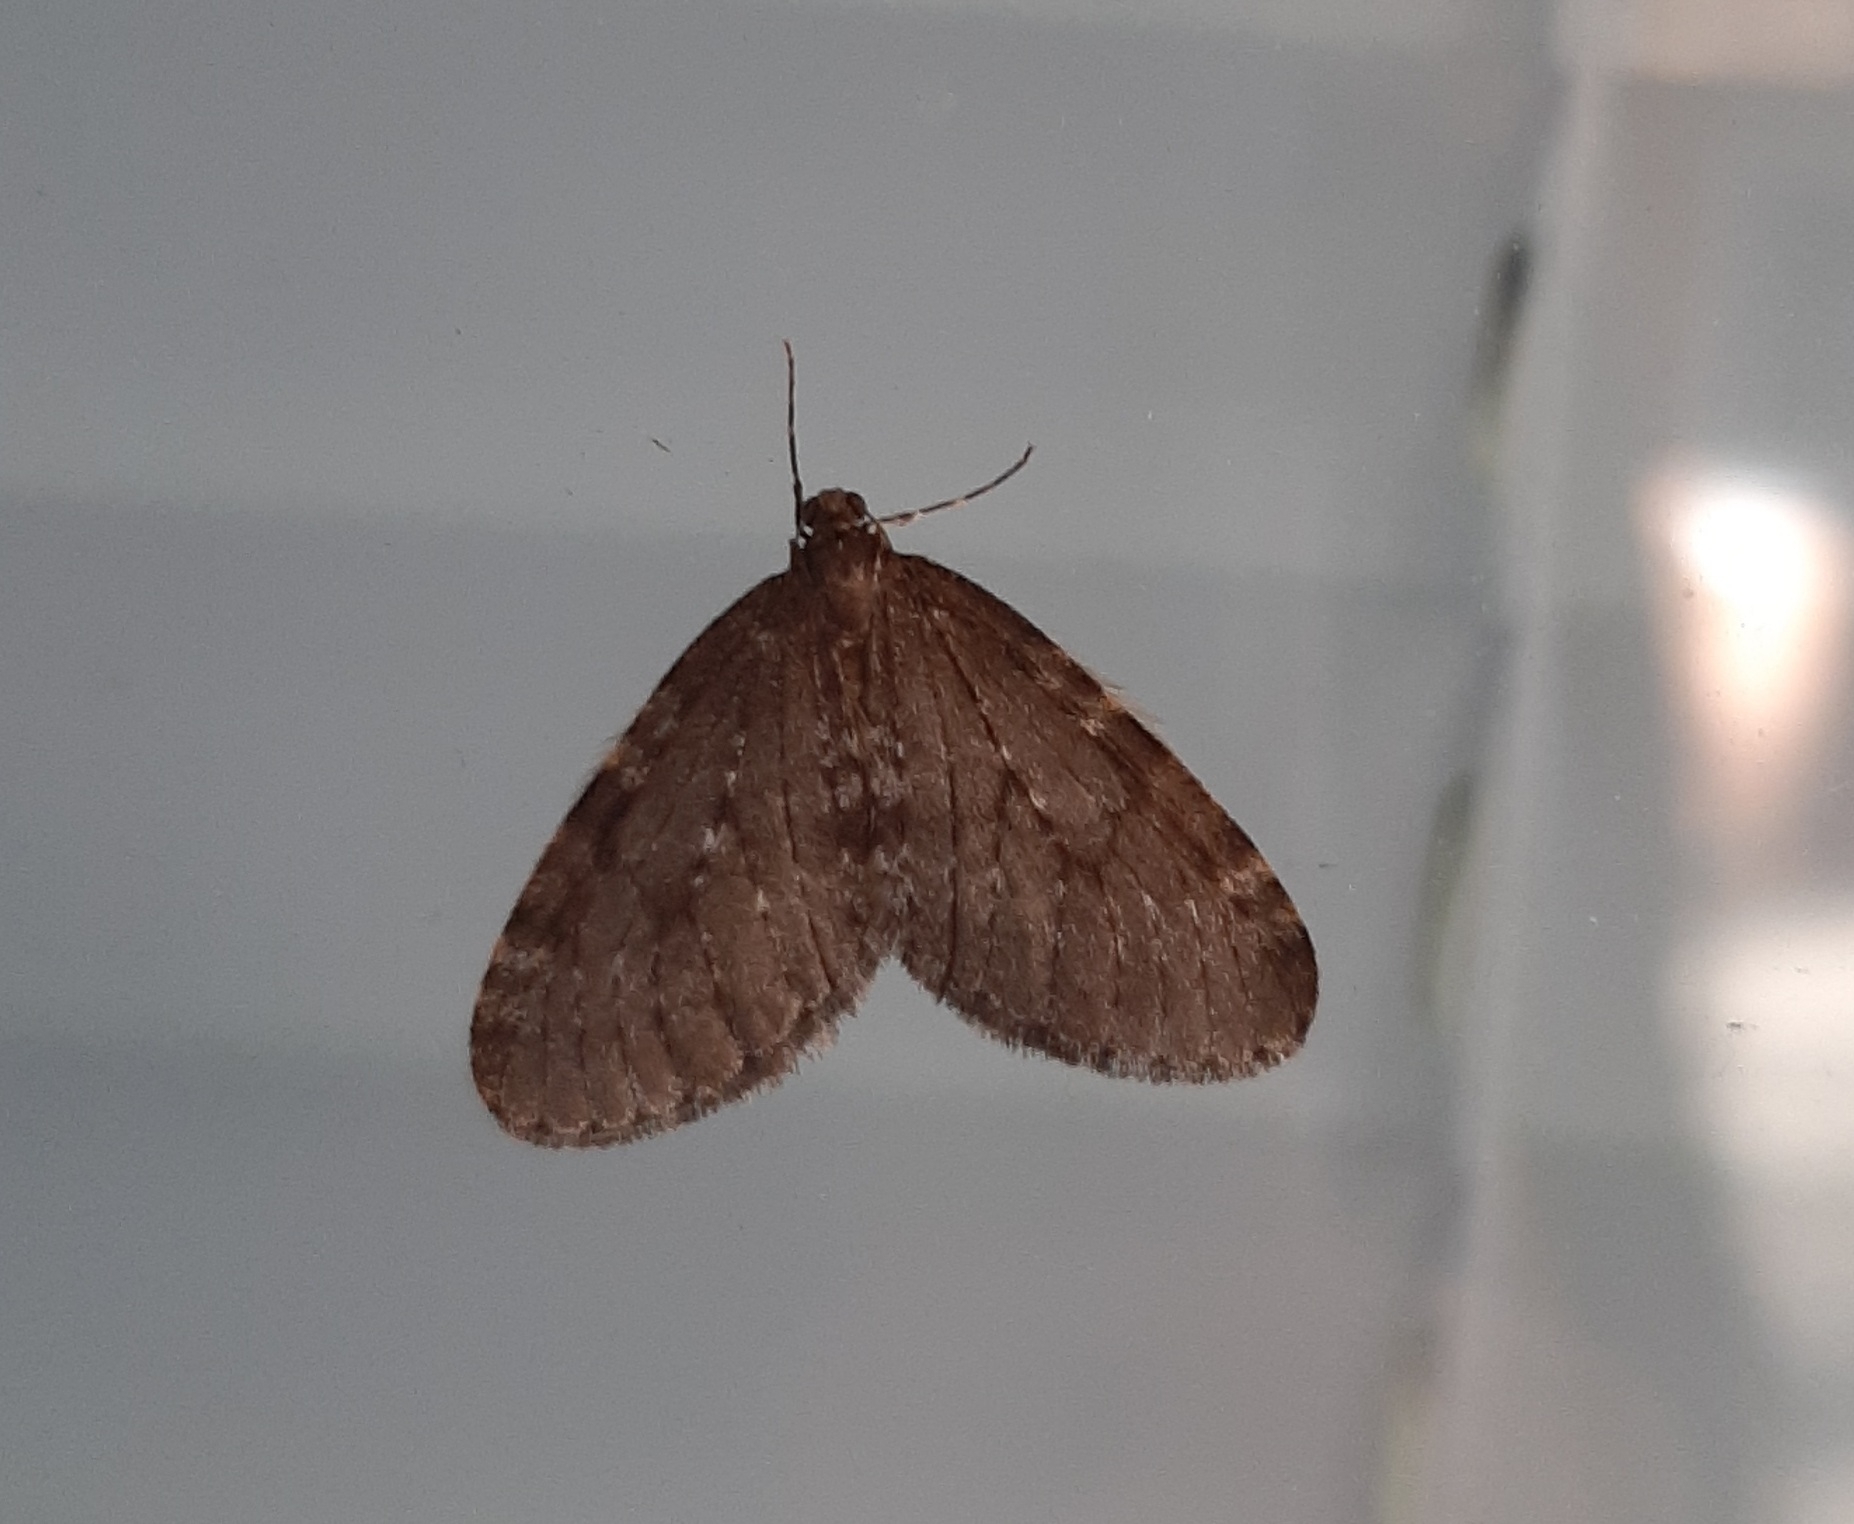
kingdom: Animalia
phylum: Arthropoda
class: Insecta
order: Lepidoptera
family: Geometridae
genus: Operophtera
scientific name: Operophtera bruceata
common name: Bruce spanworm
